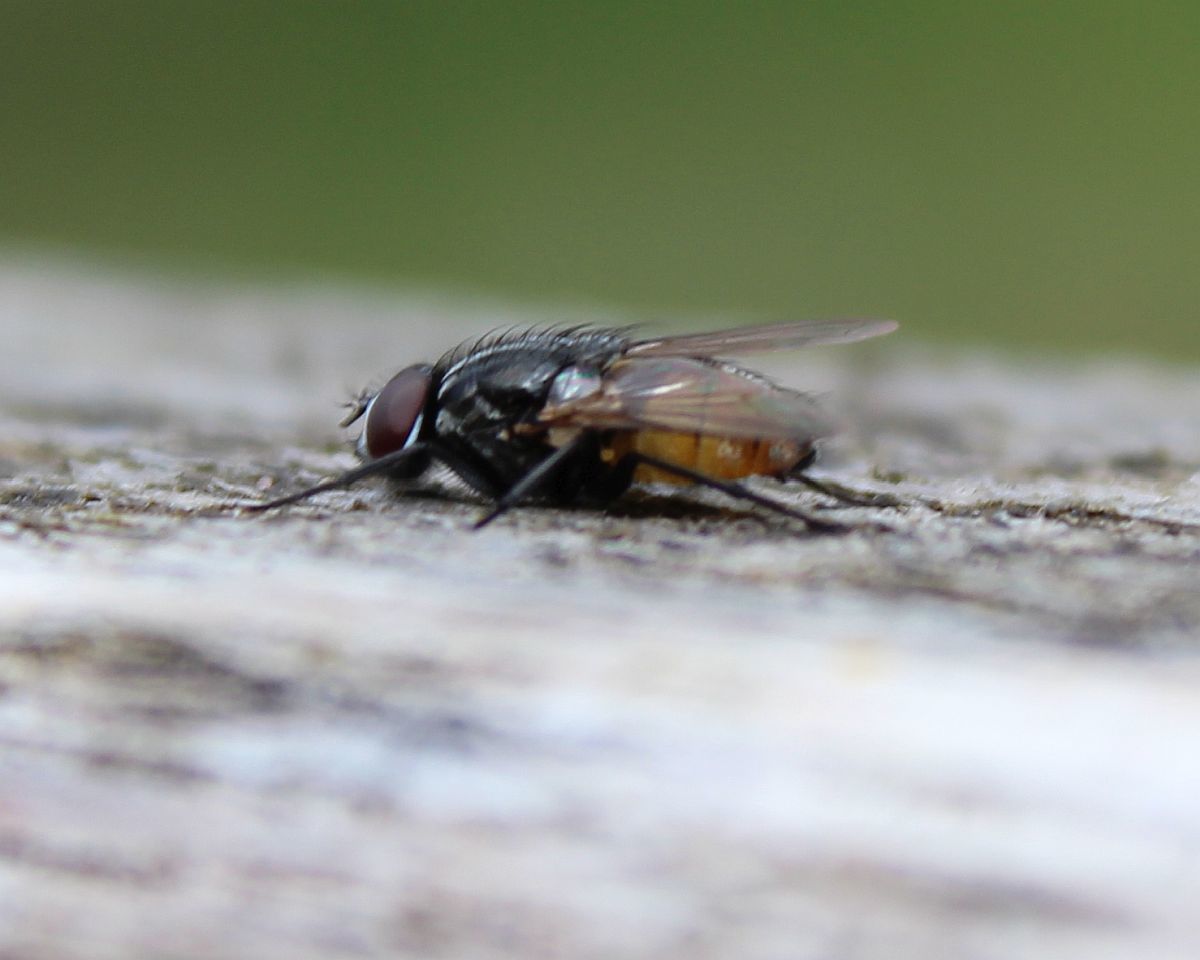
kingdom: Animalia
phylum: Arthropoda
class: Insecta
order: Diptera
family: Muscidae
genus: Musca
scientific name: Musca autumnalis
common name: Face fly
